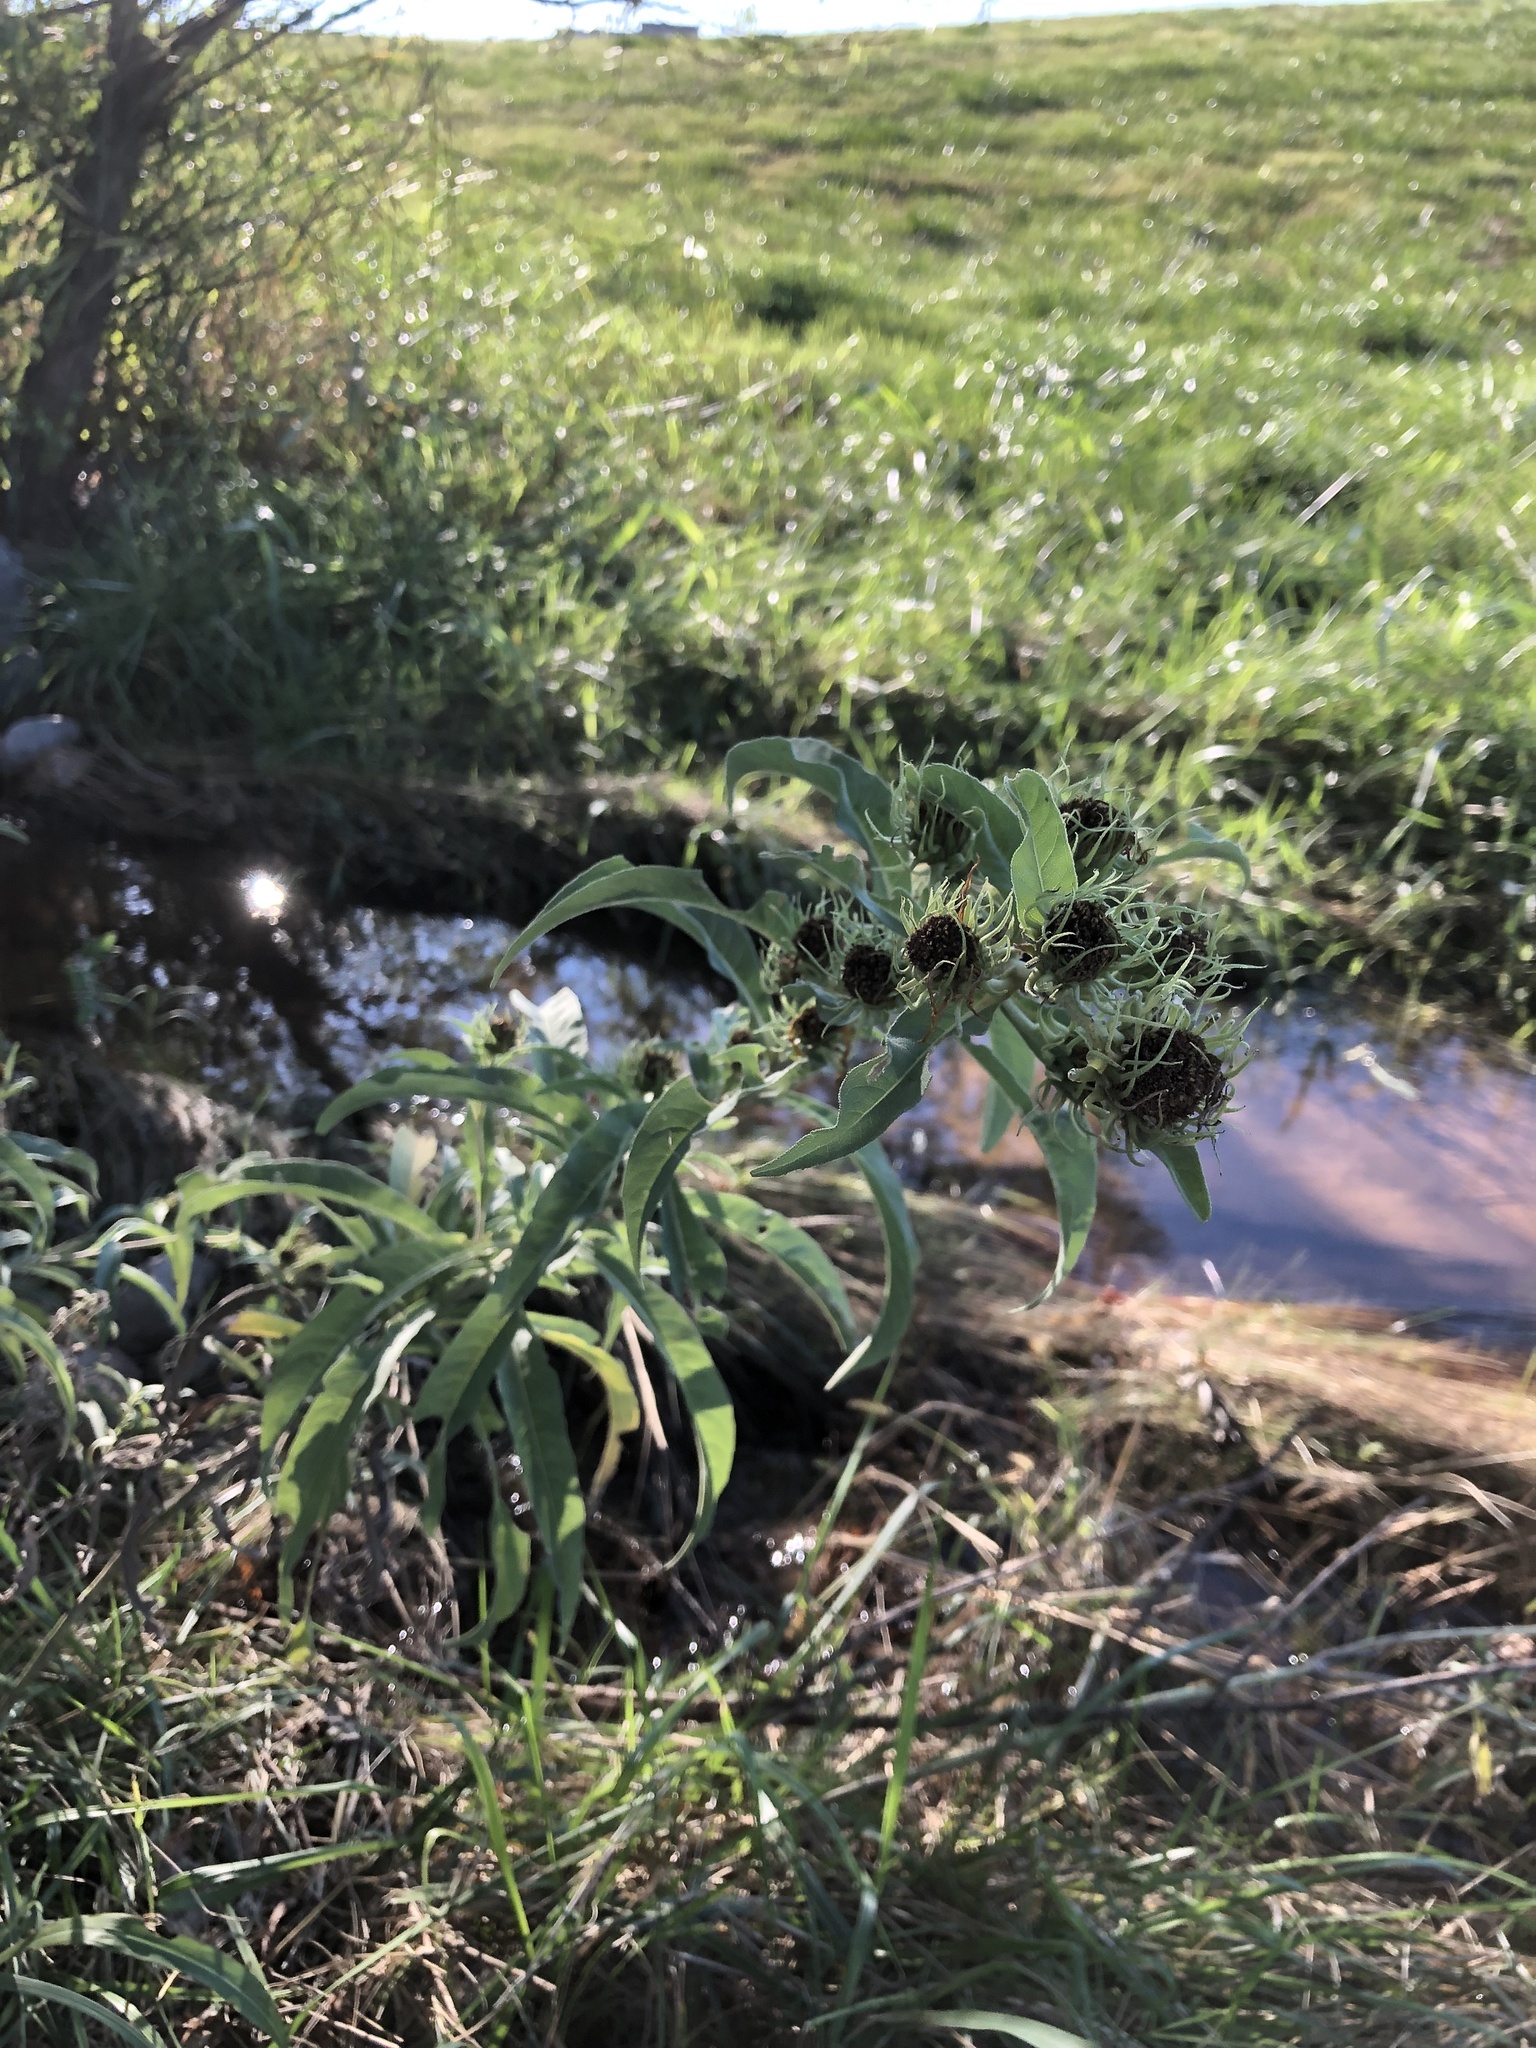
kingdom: Plantae
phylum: Tracheophyta
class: Magnoliopsida
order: Asterales
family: Asteraceae
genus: Helianthus
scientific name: Helianthus maximiliani
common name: Maximilian's sunflower
